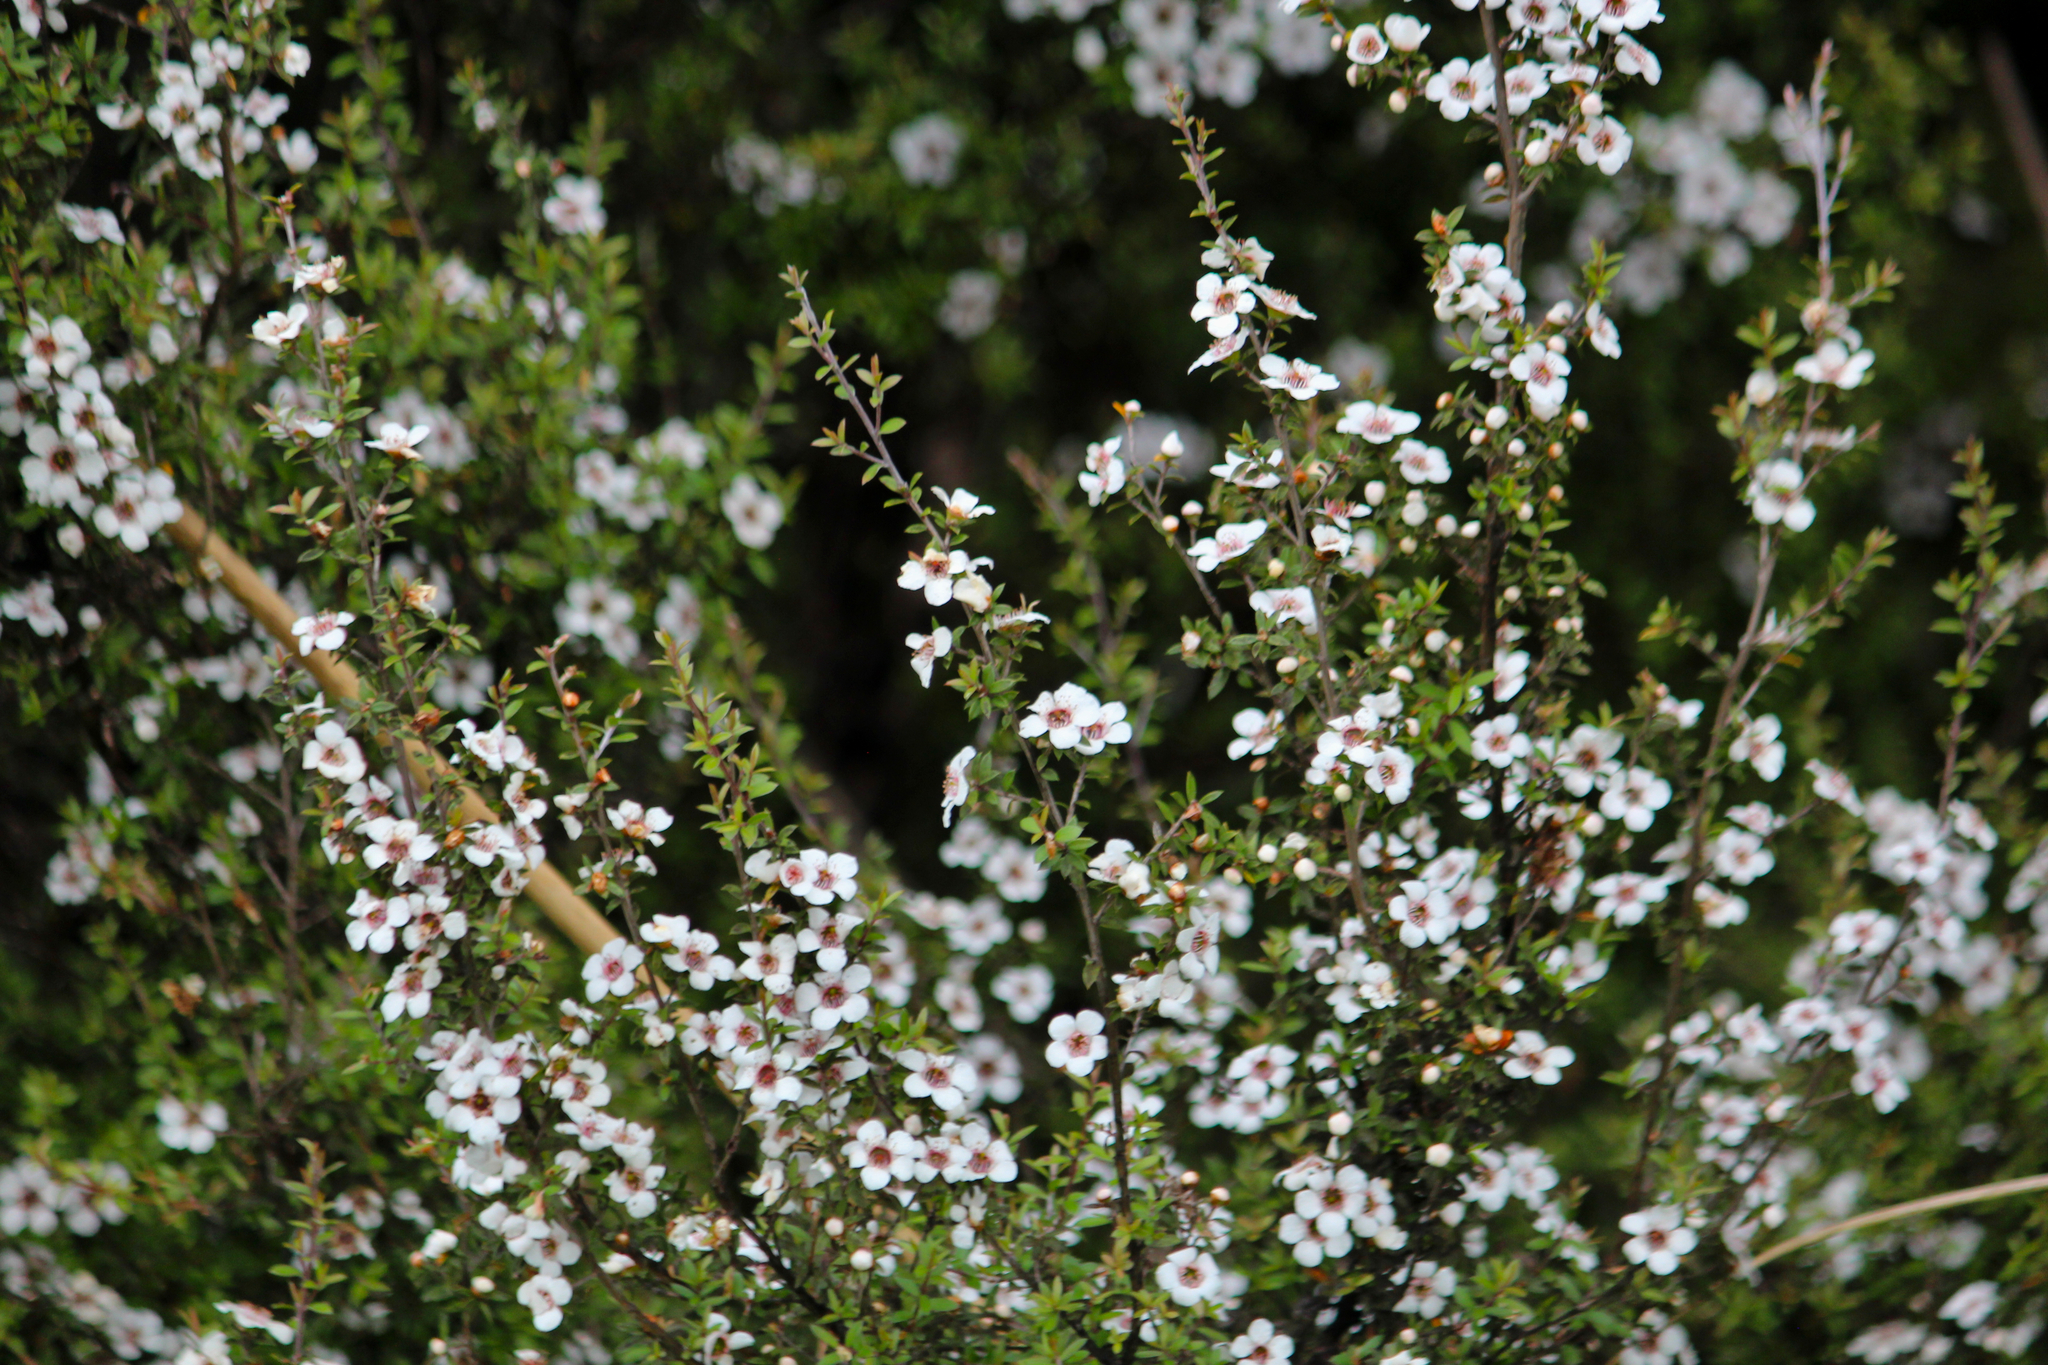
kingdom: Plantae
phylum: Tracheophyta
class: Magnoliopsida
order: Myrtales
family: Myrtaceae
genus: Leptospermum
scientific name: Leptospermum scoparium
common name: Broom tea-tree
